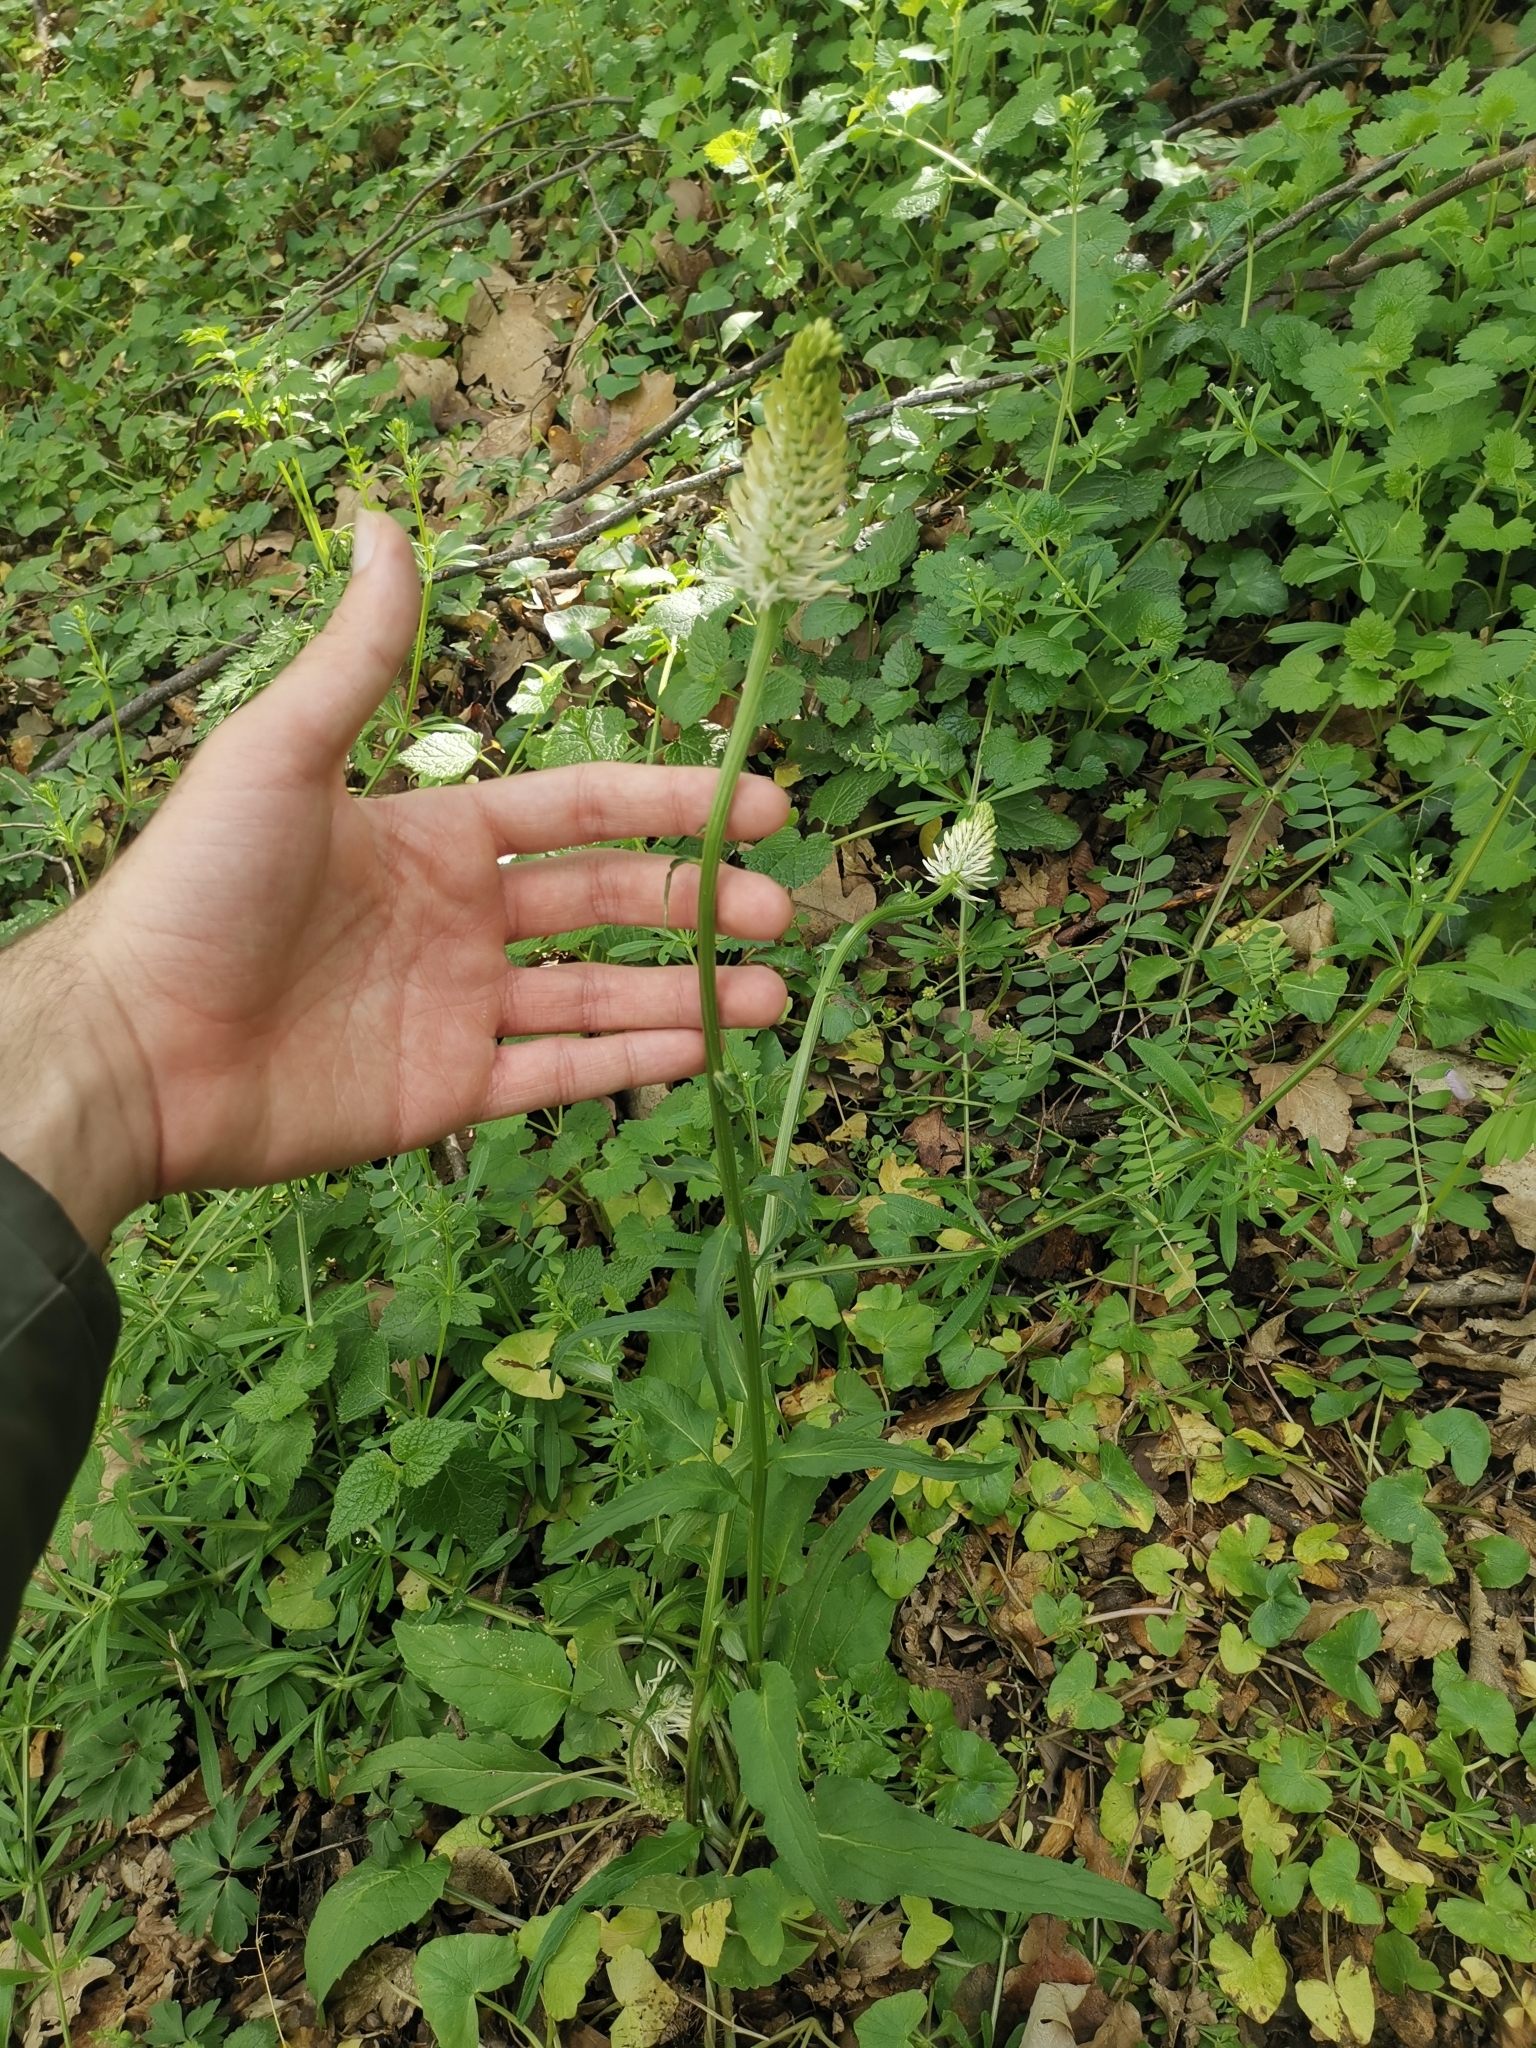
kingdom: Plantae
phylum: Tracheophyta
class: Magnoliopsida
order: Asterales
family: Campanulaceae
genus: Phyteuma
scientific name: Phyteuma spicatum
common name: Spiked rampion
